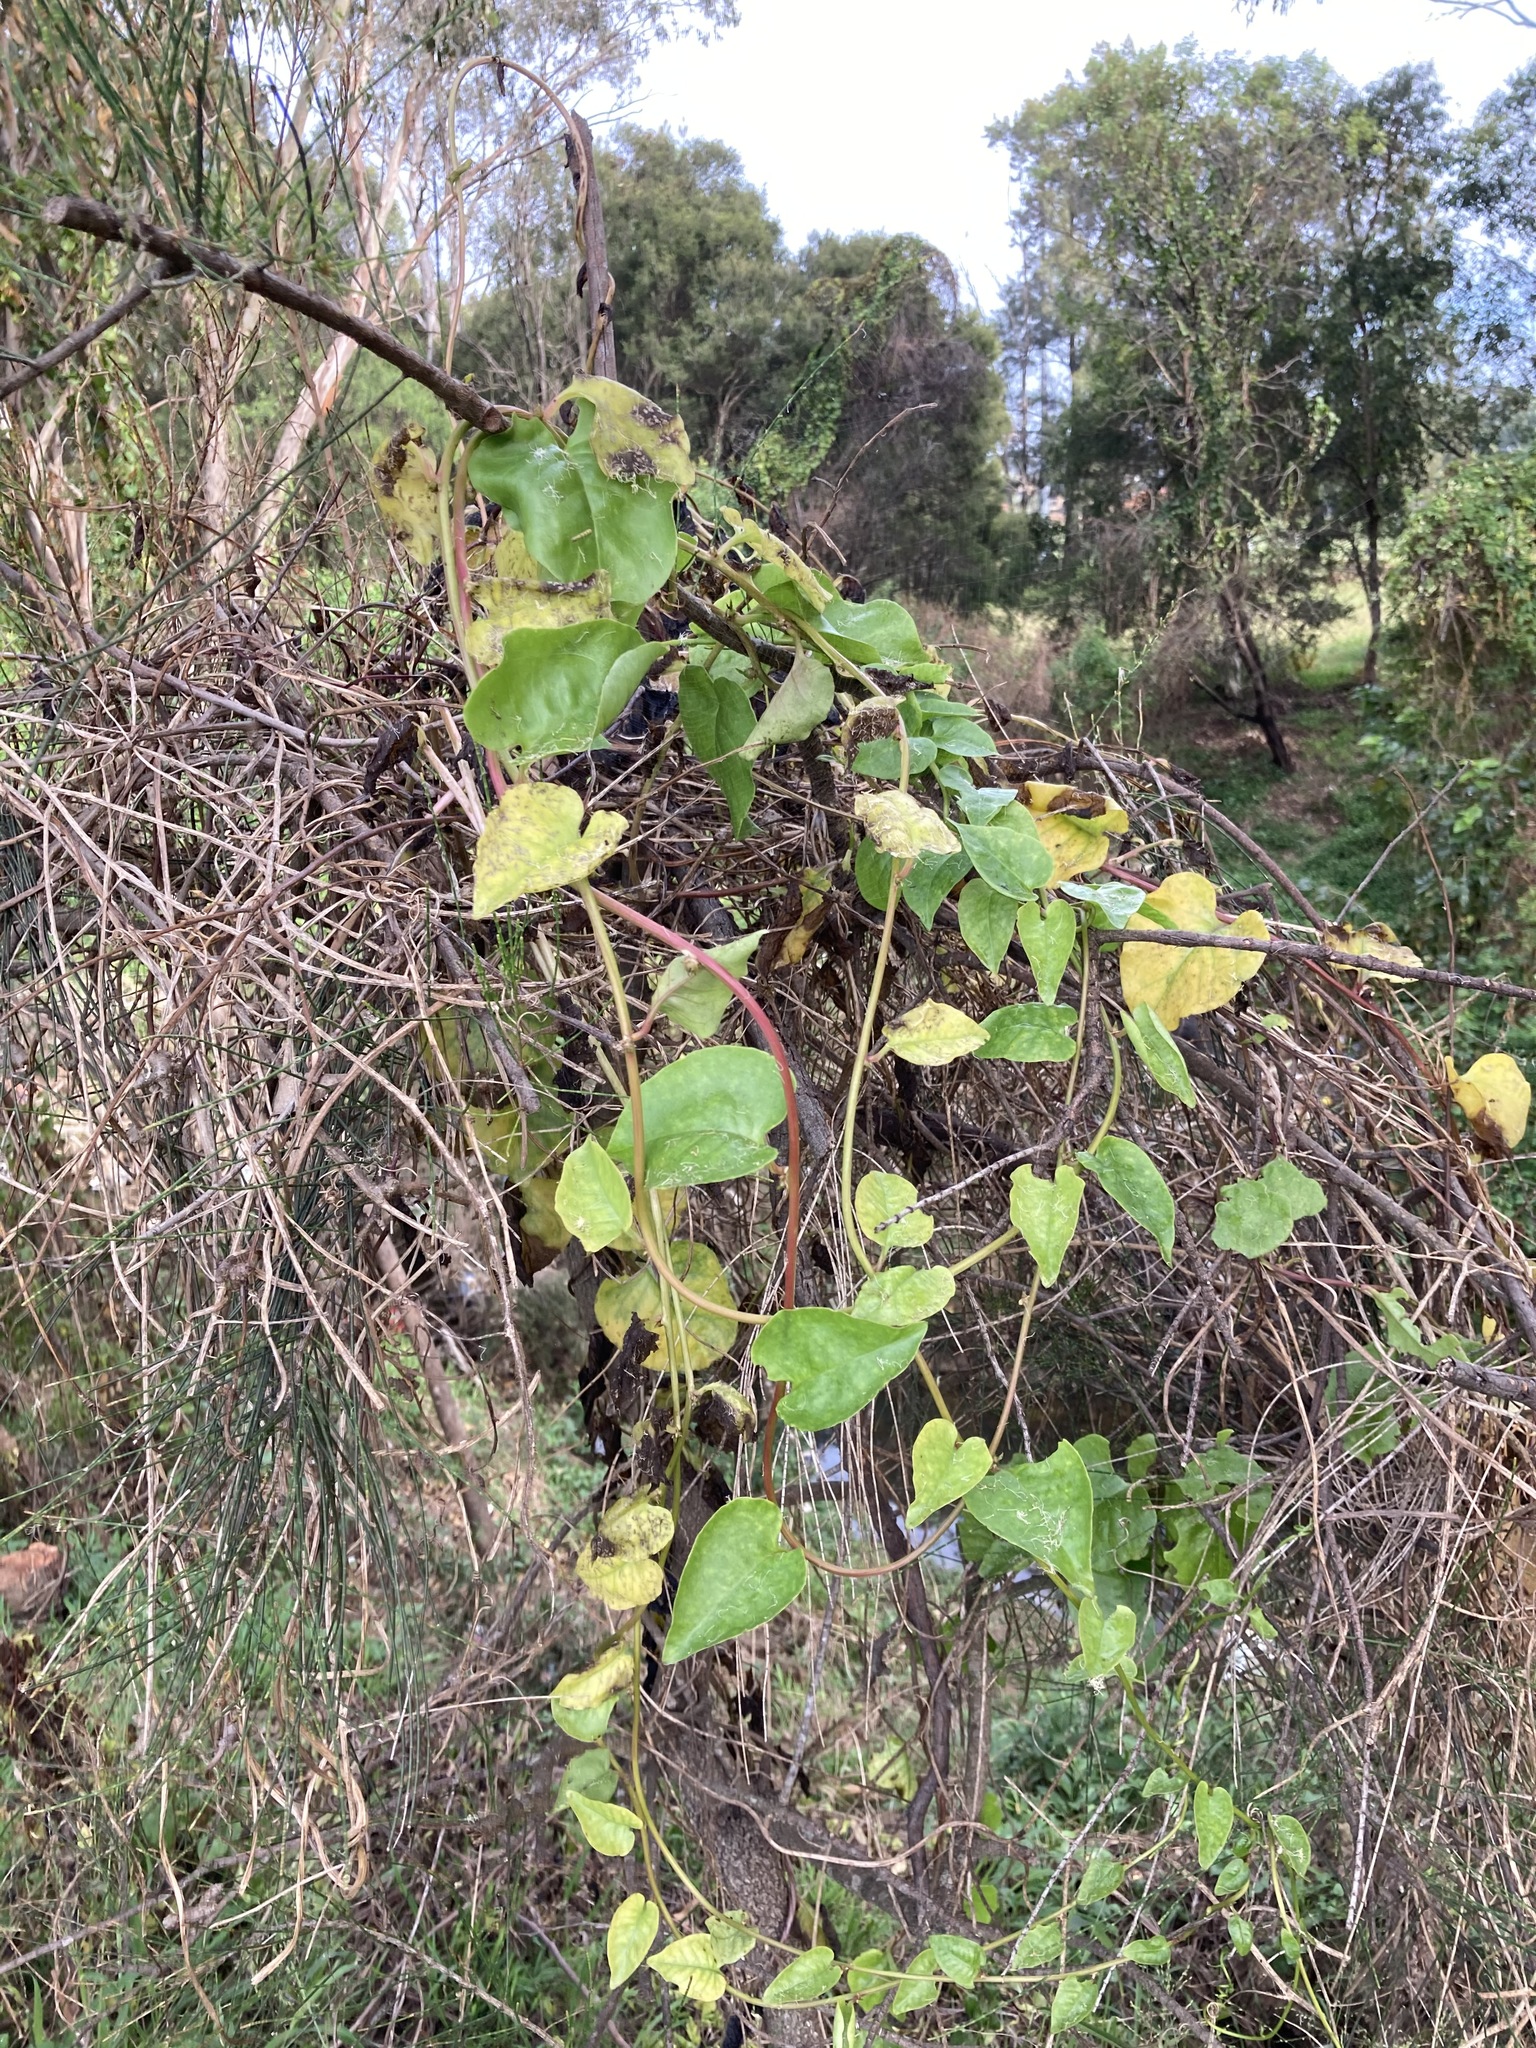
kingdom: Plantae
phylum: Tracheophyta
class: Magnoliopsida
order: Caryophyllales
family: Basellaceae
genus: Anredera
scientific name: Anredera cordifolia
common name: Heartleaf madeiravine
